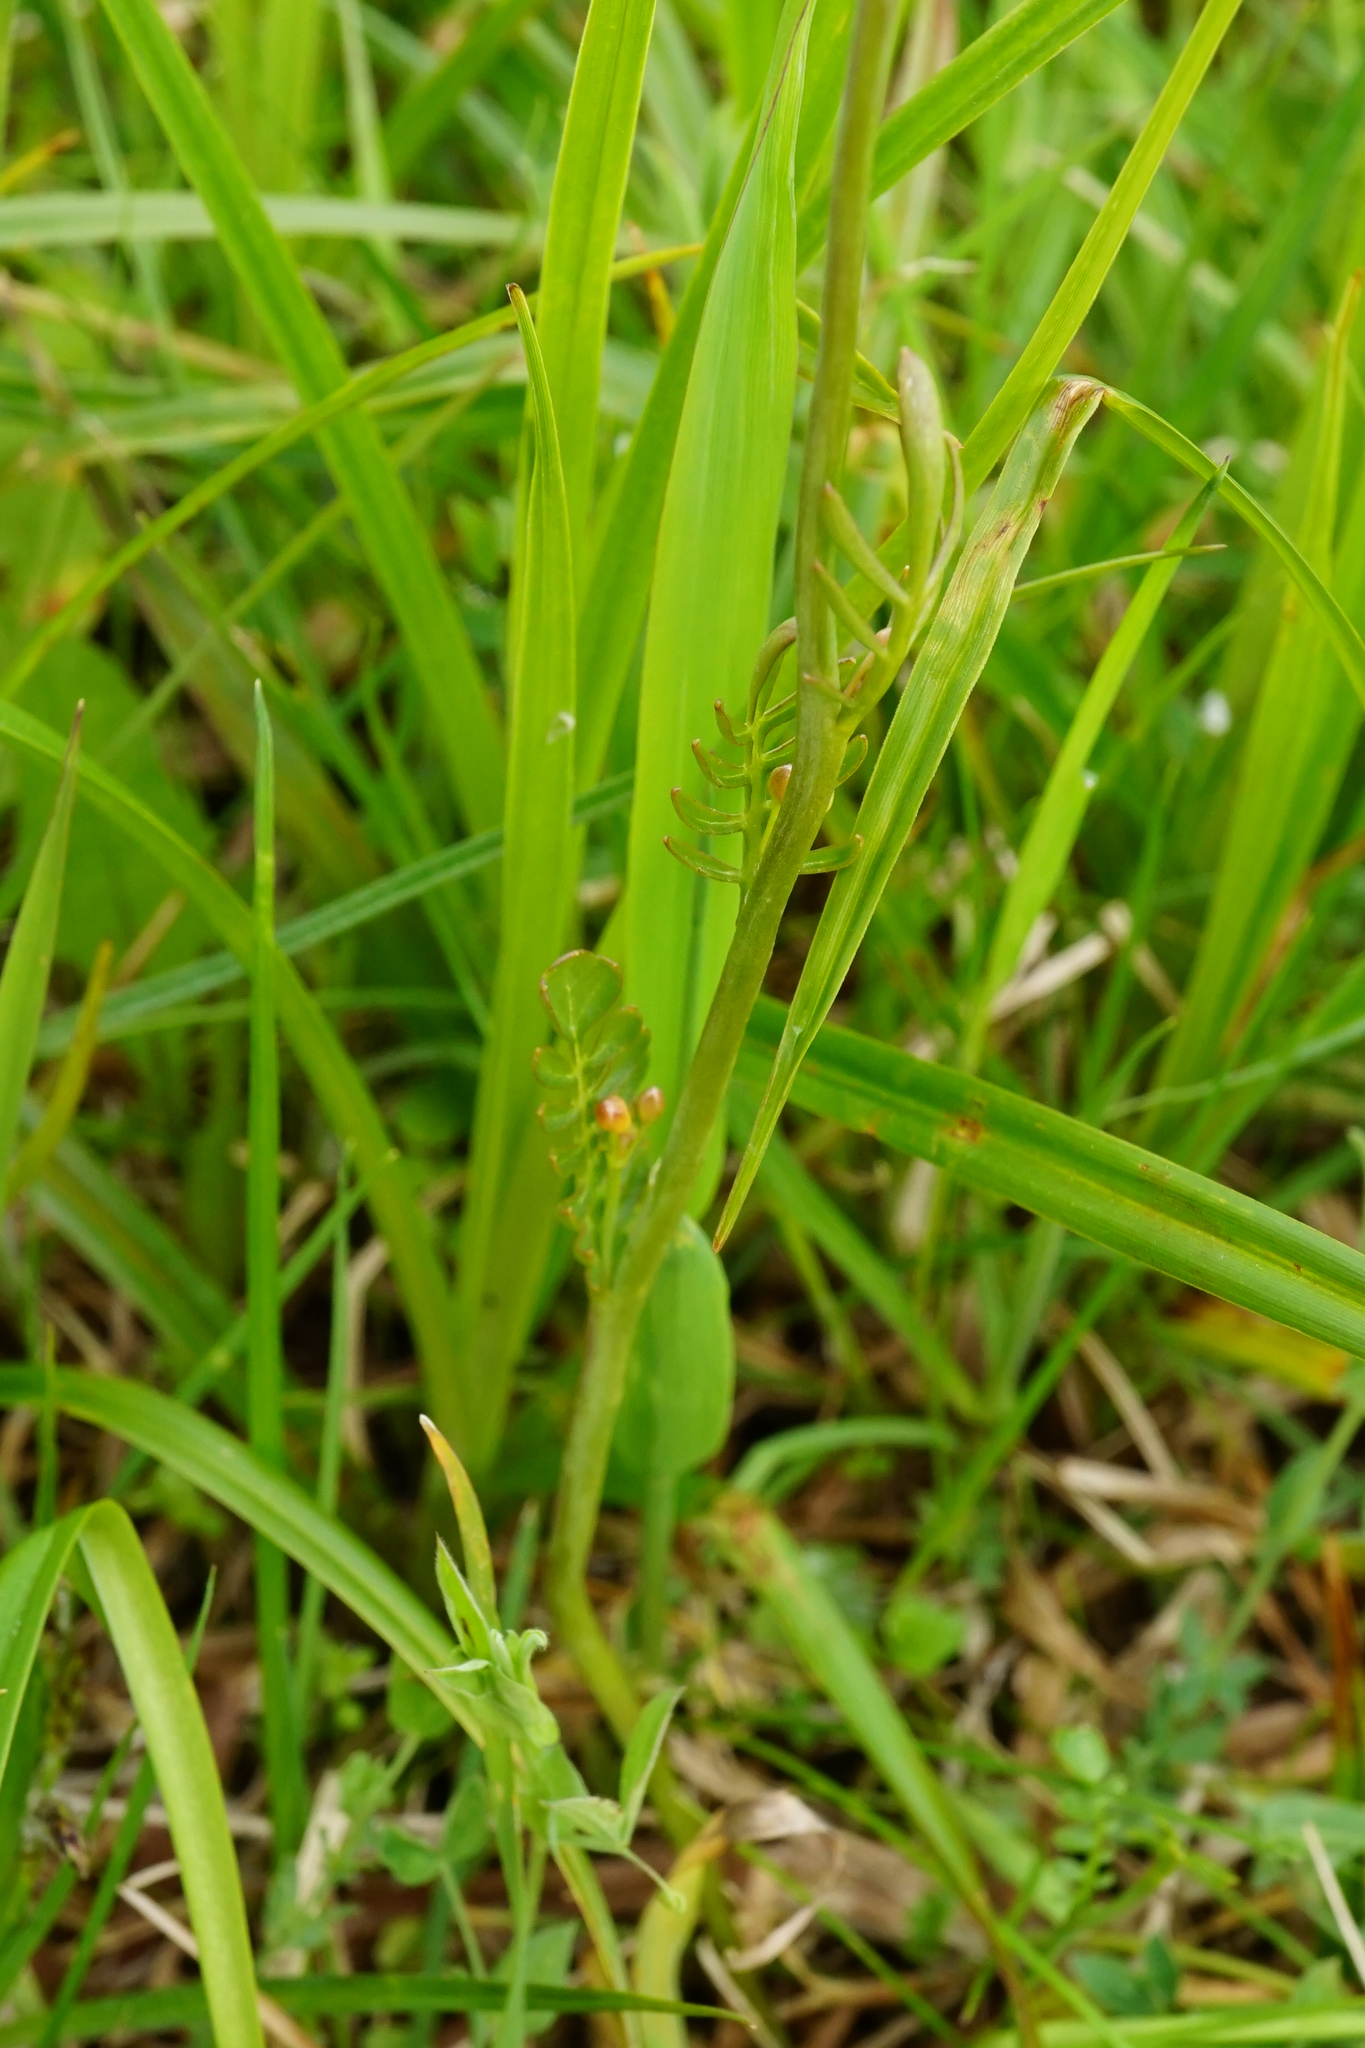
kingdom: Plantae
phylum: Tracheophyta
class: Magnoliopsida
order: Brassicales
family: Brassicaceae
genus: Cardamine
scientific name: Cardamine pratensis
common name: Cuckoo flower
